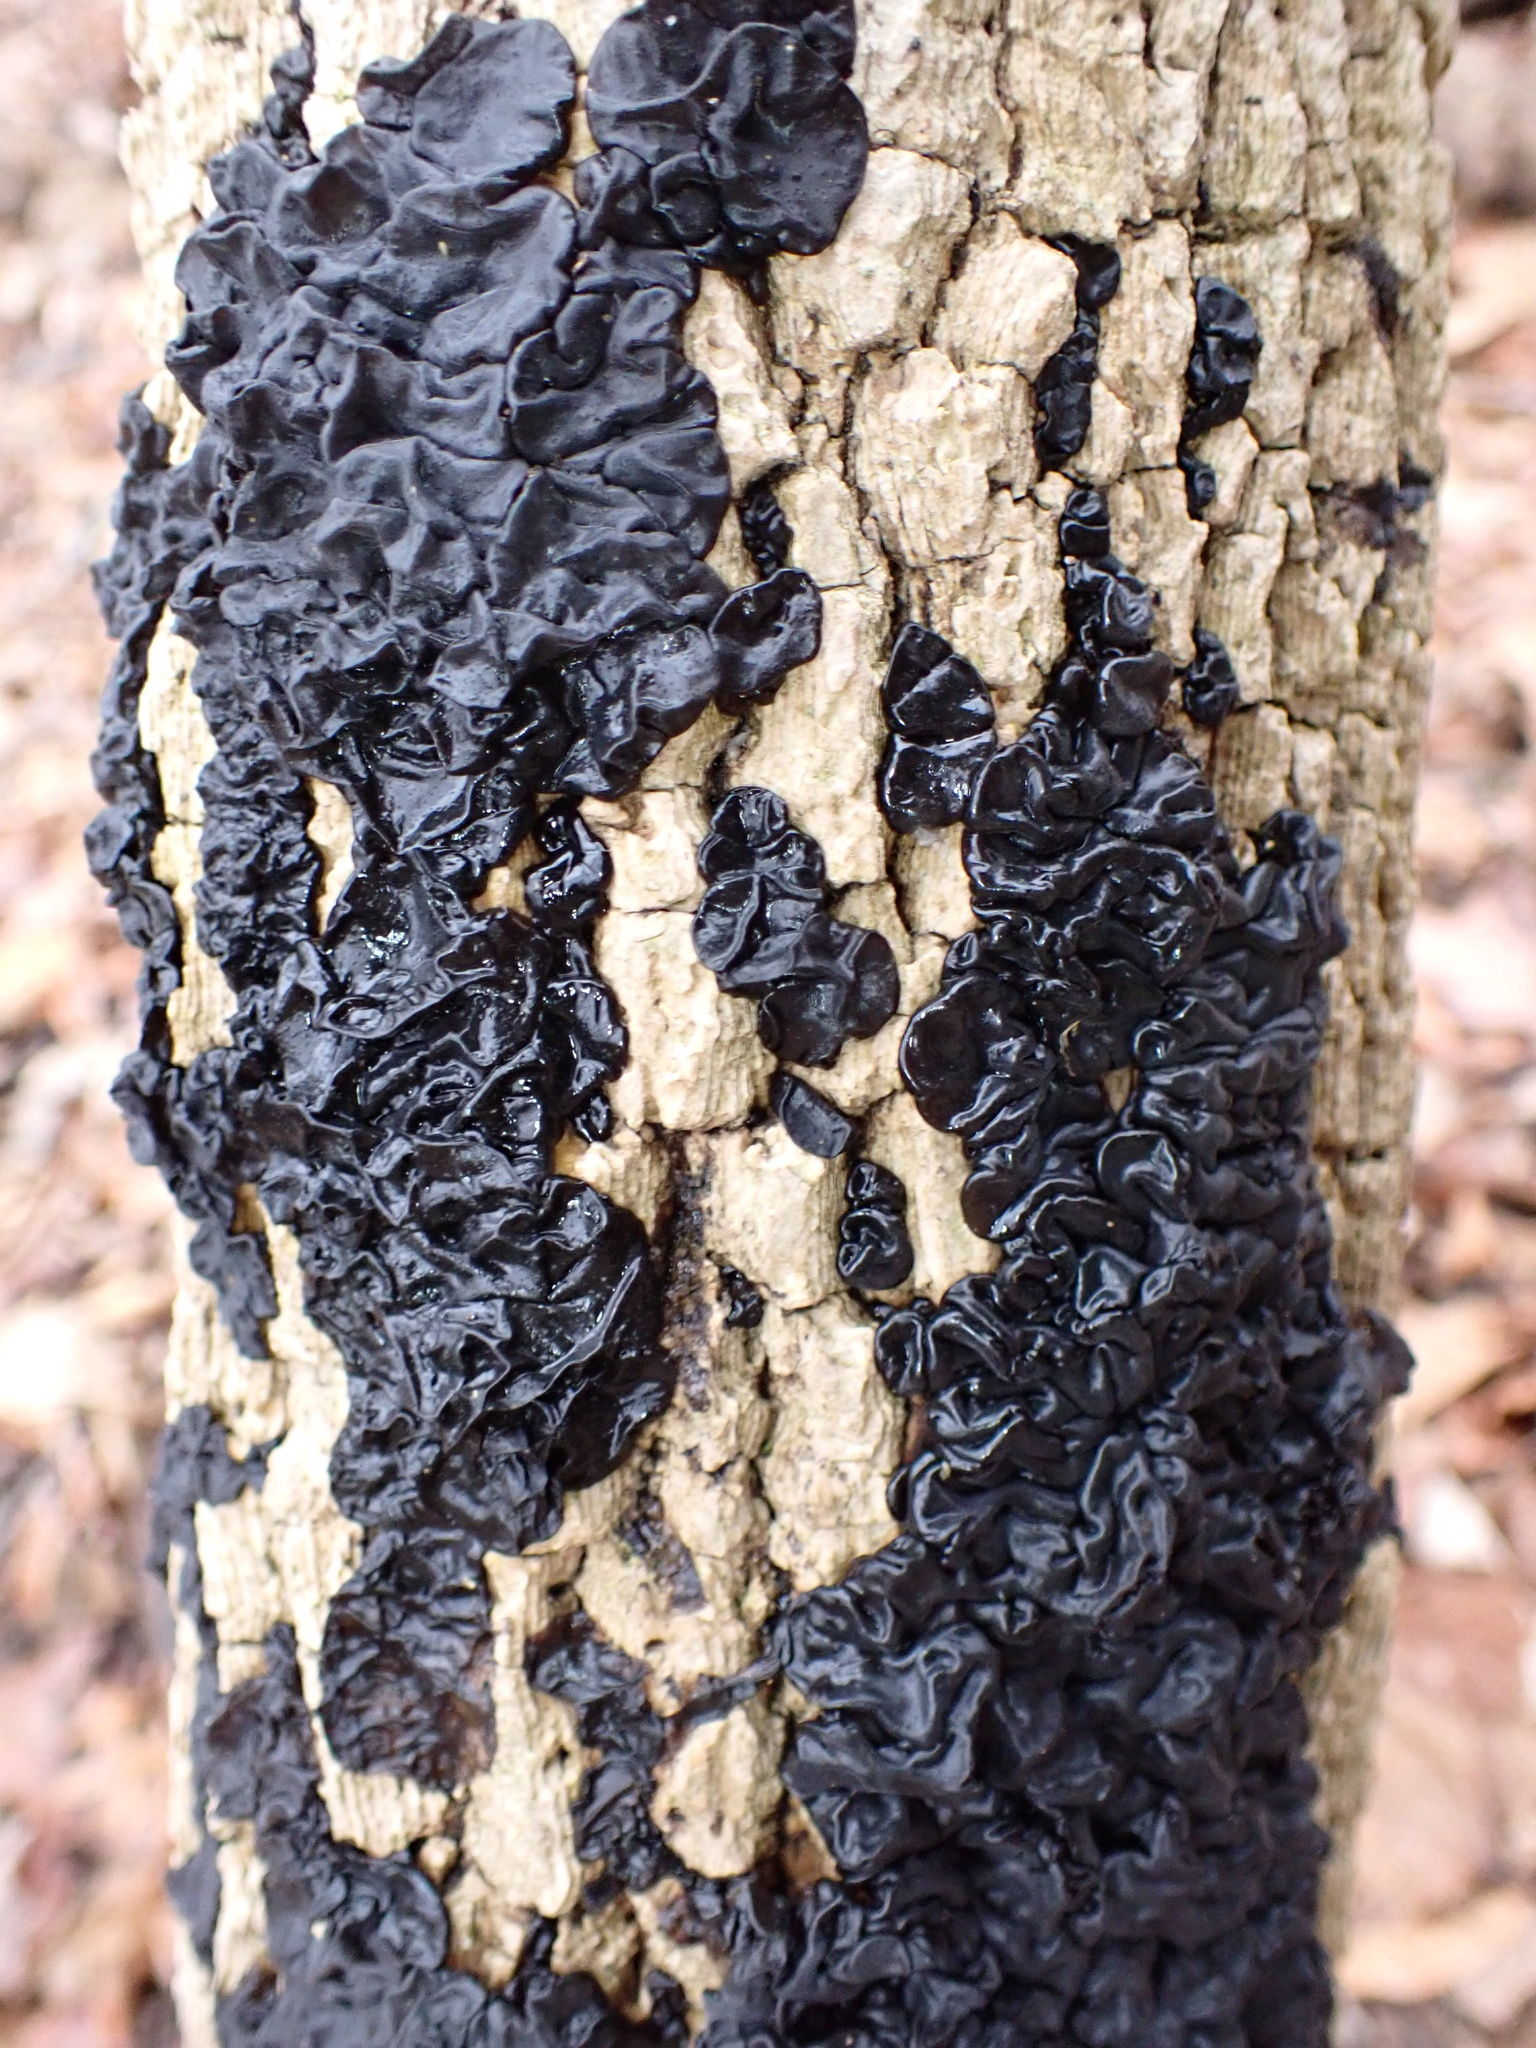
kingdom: Fungi
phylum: Basidiomycota
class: Agaricomycetes
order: Auriculariales
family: Auriculariaceae
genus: Exidia
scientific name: Exidia nigricans
